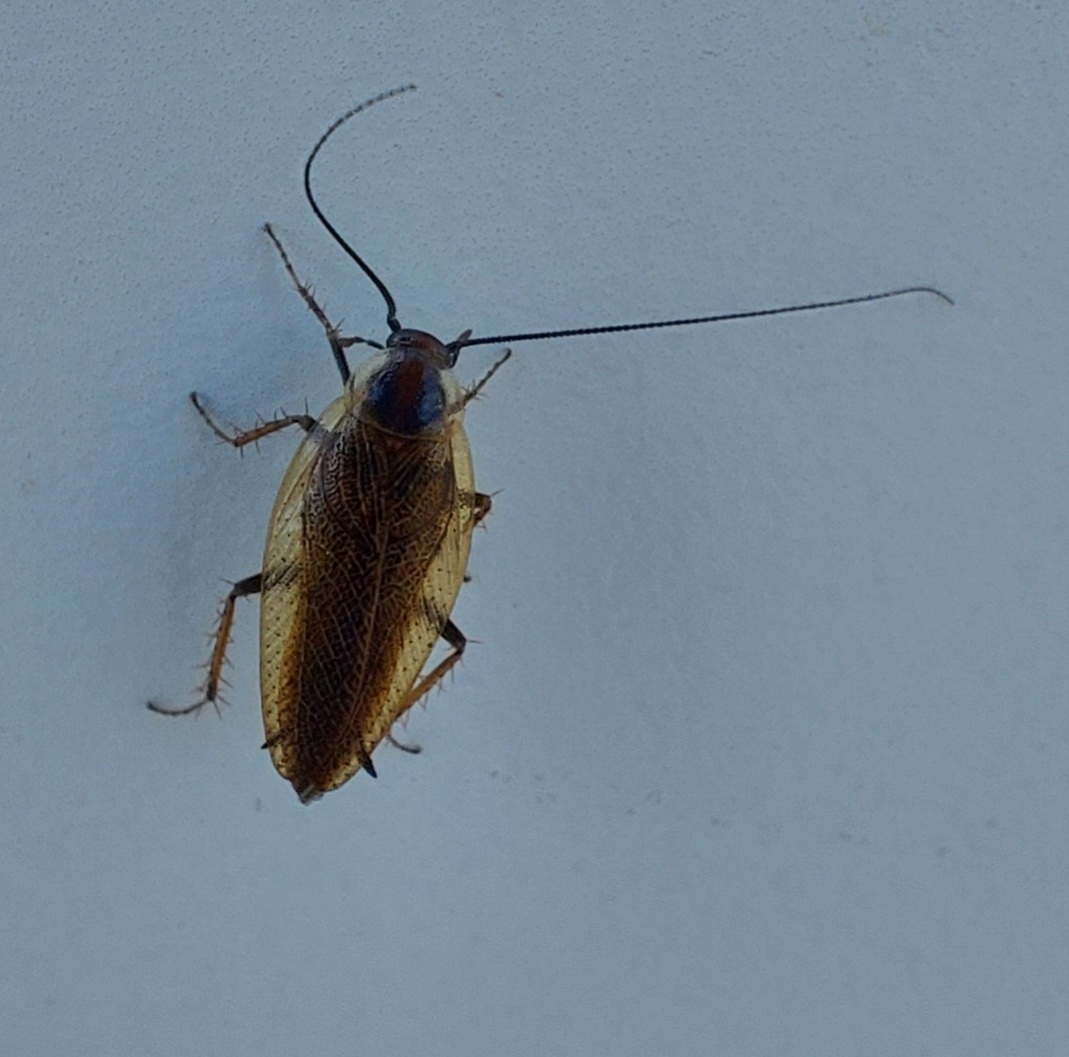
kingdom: Animalia
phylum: Arthropoda
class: Insecta
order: Blattodea
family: Ectobiidae
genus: Ectobius
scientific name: Ectobius lapponicus
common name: Dusky cockroach
